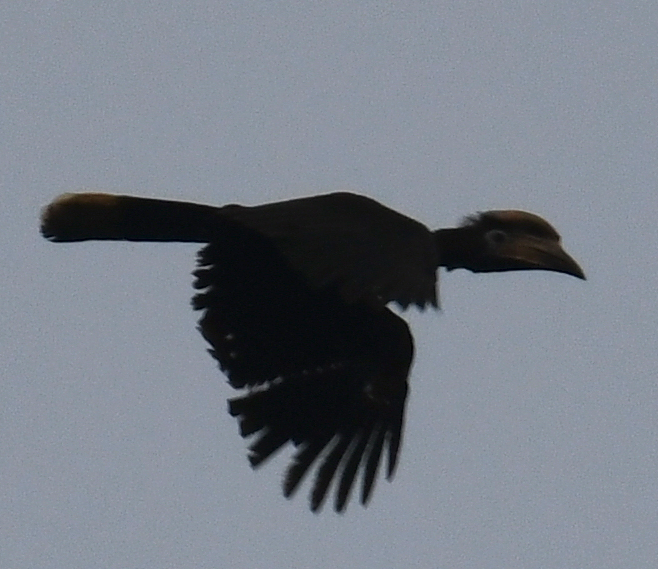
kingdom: Animalia
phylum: Chordata
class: Aves
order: Bucerotiformes
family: Bucerotidae
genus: Ceratogymna
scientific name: Ceratogymna atrata
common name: Black-casqued hornbill
